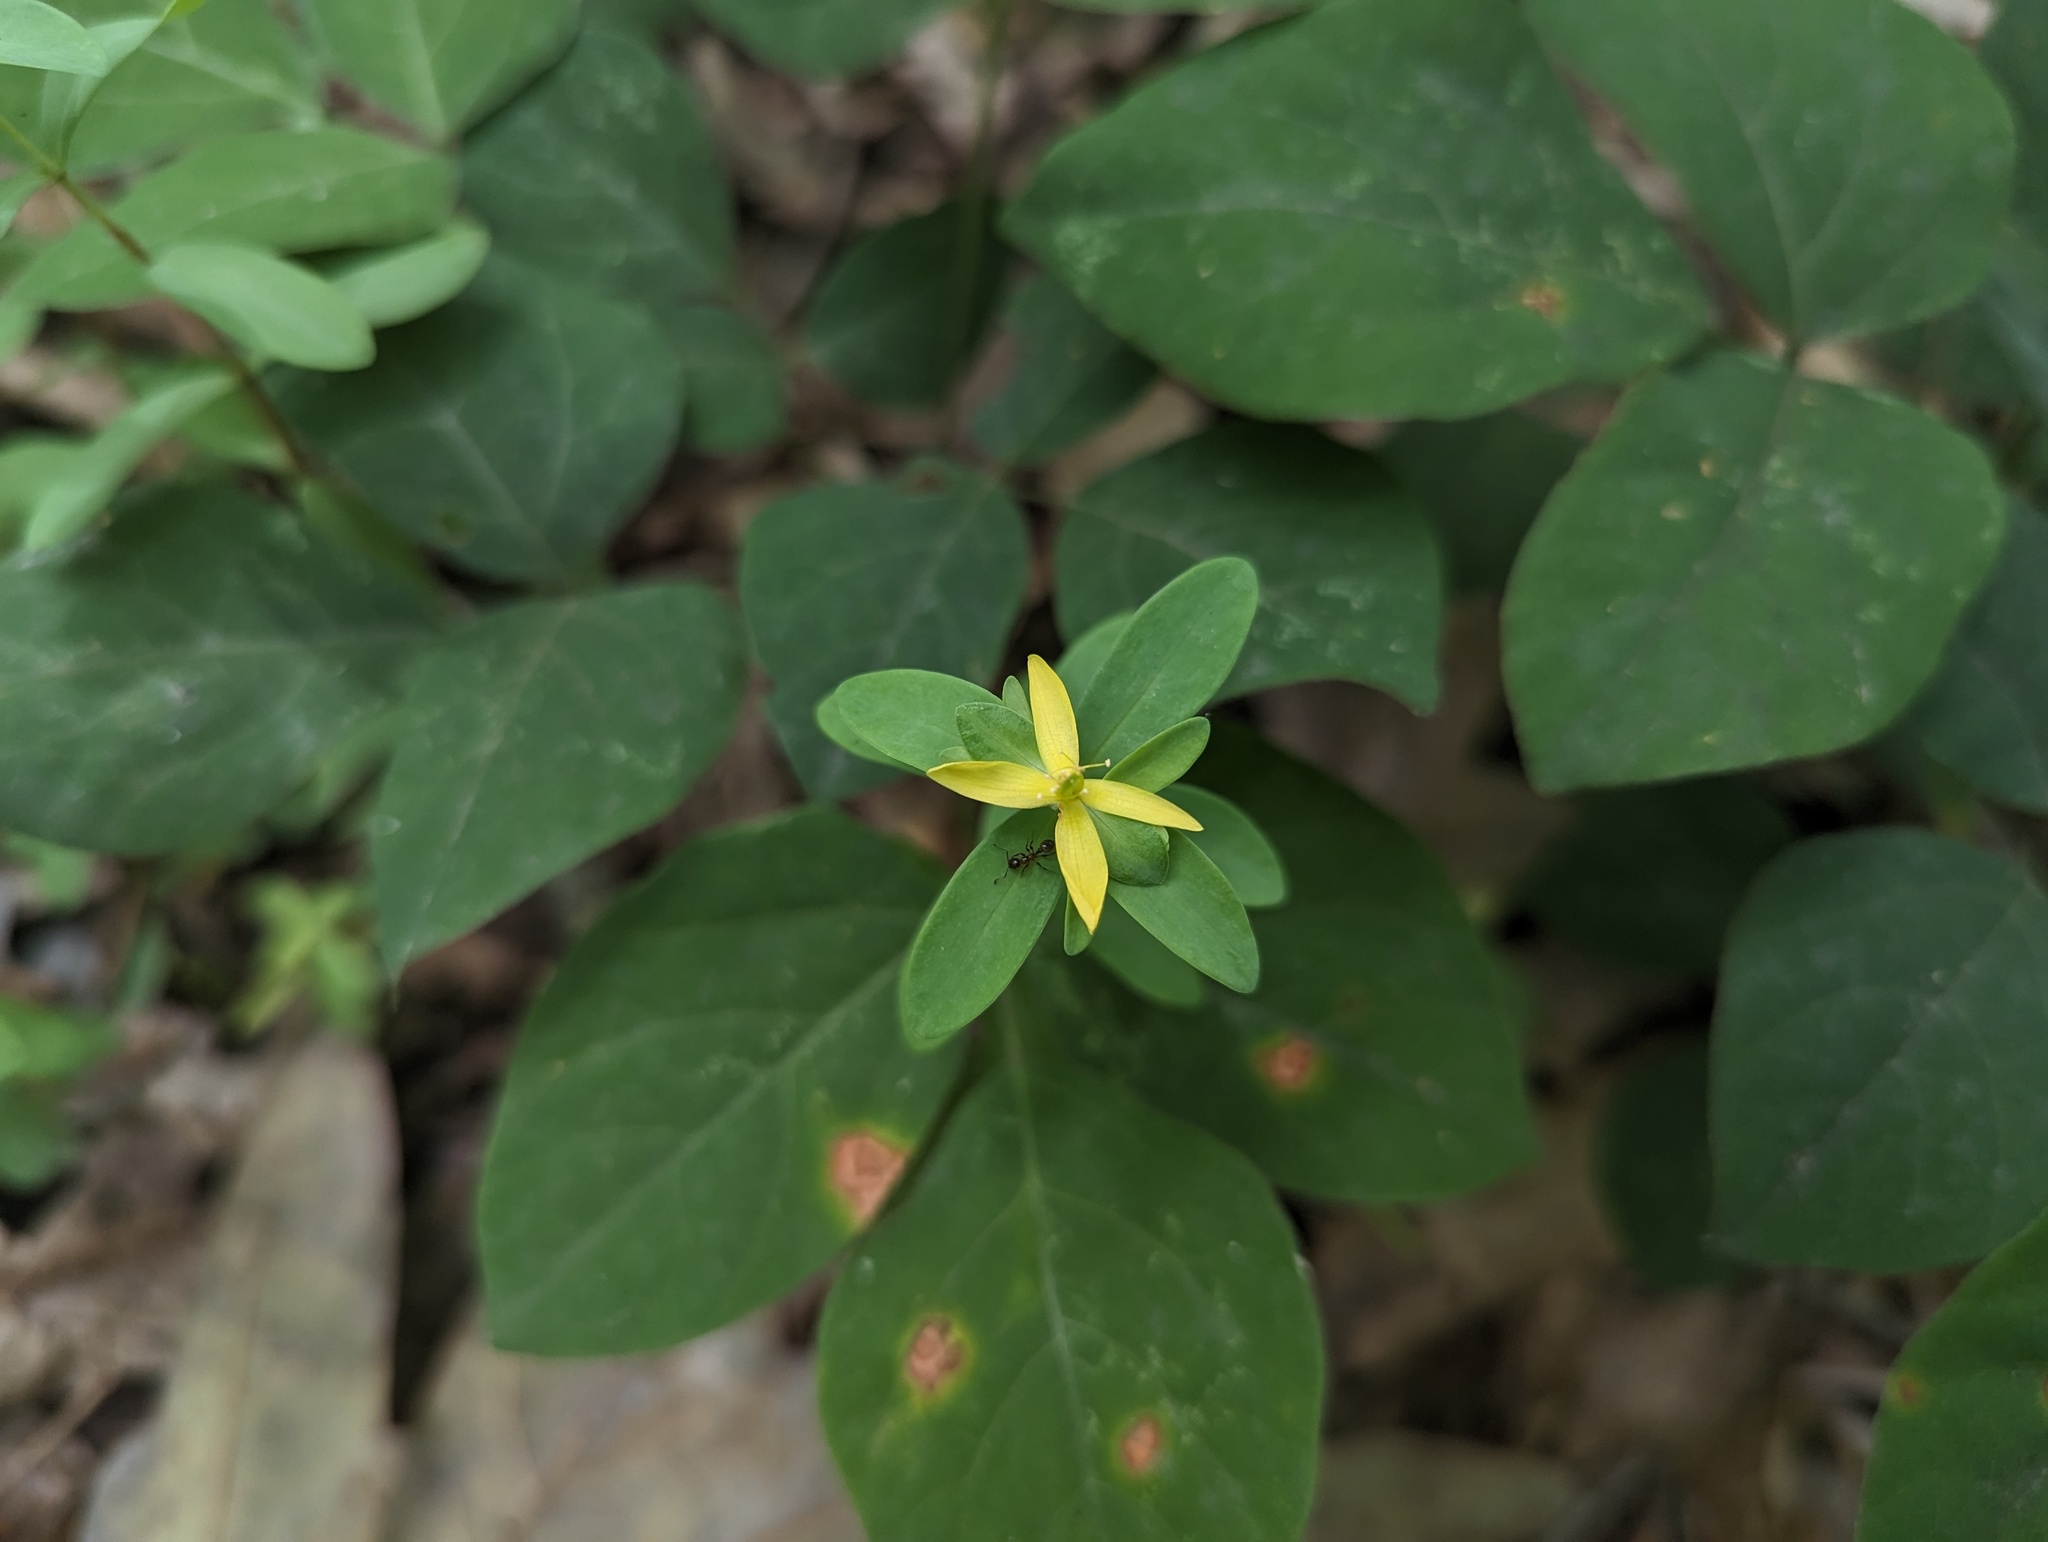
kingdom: Plantae
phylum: Tracheophyta
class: Magnoliopsida
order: Malpighiales
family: Hypericaceae
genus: Hypericum
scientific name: Hypericum hypericoides
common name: St. andrew's cross
